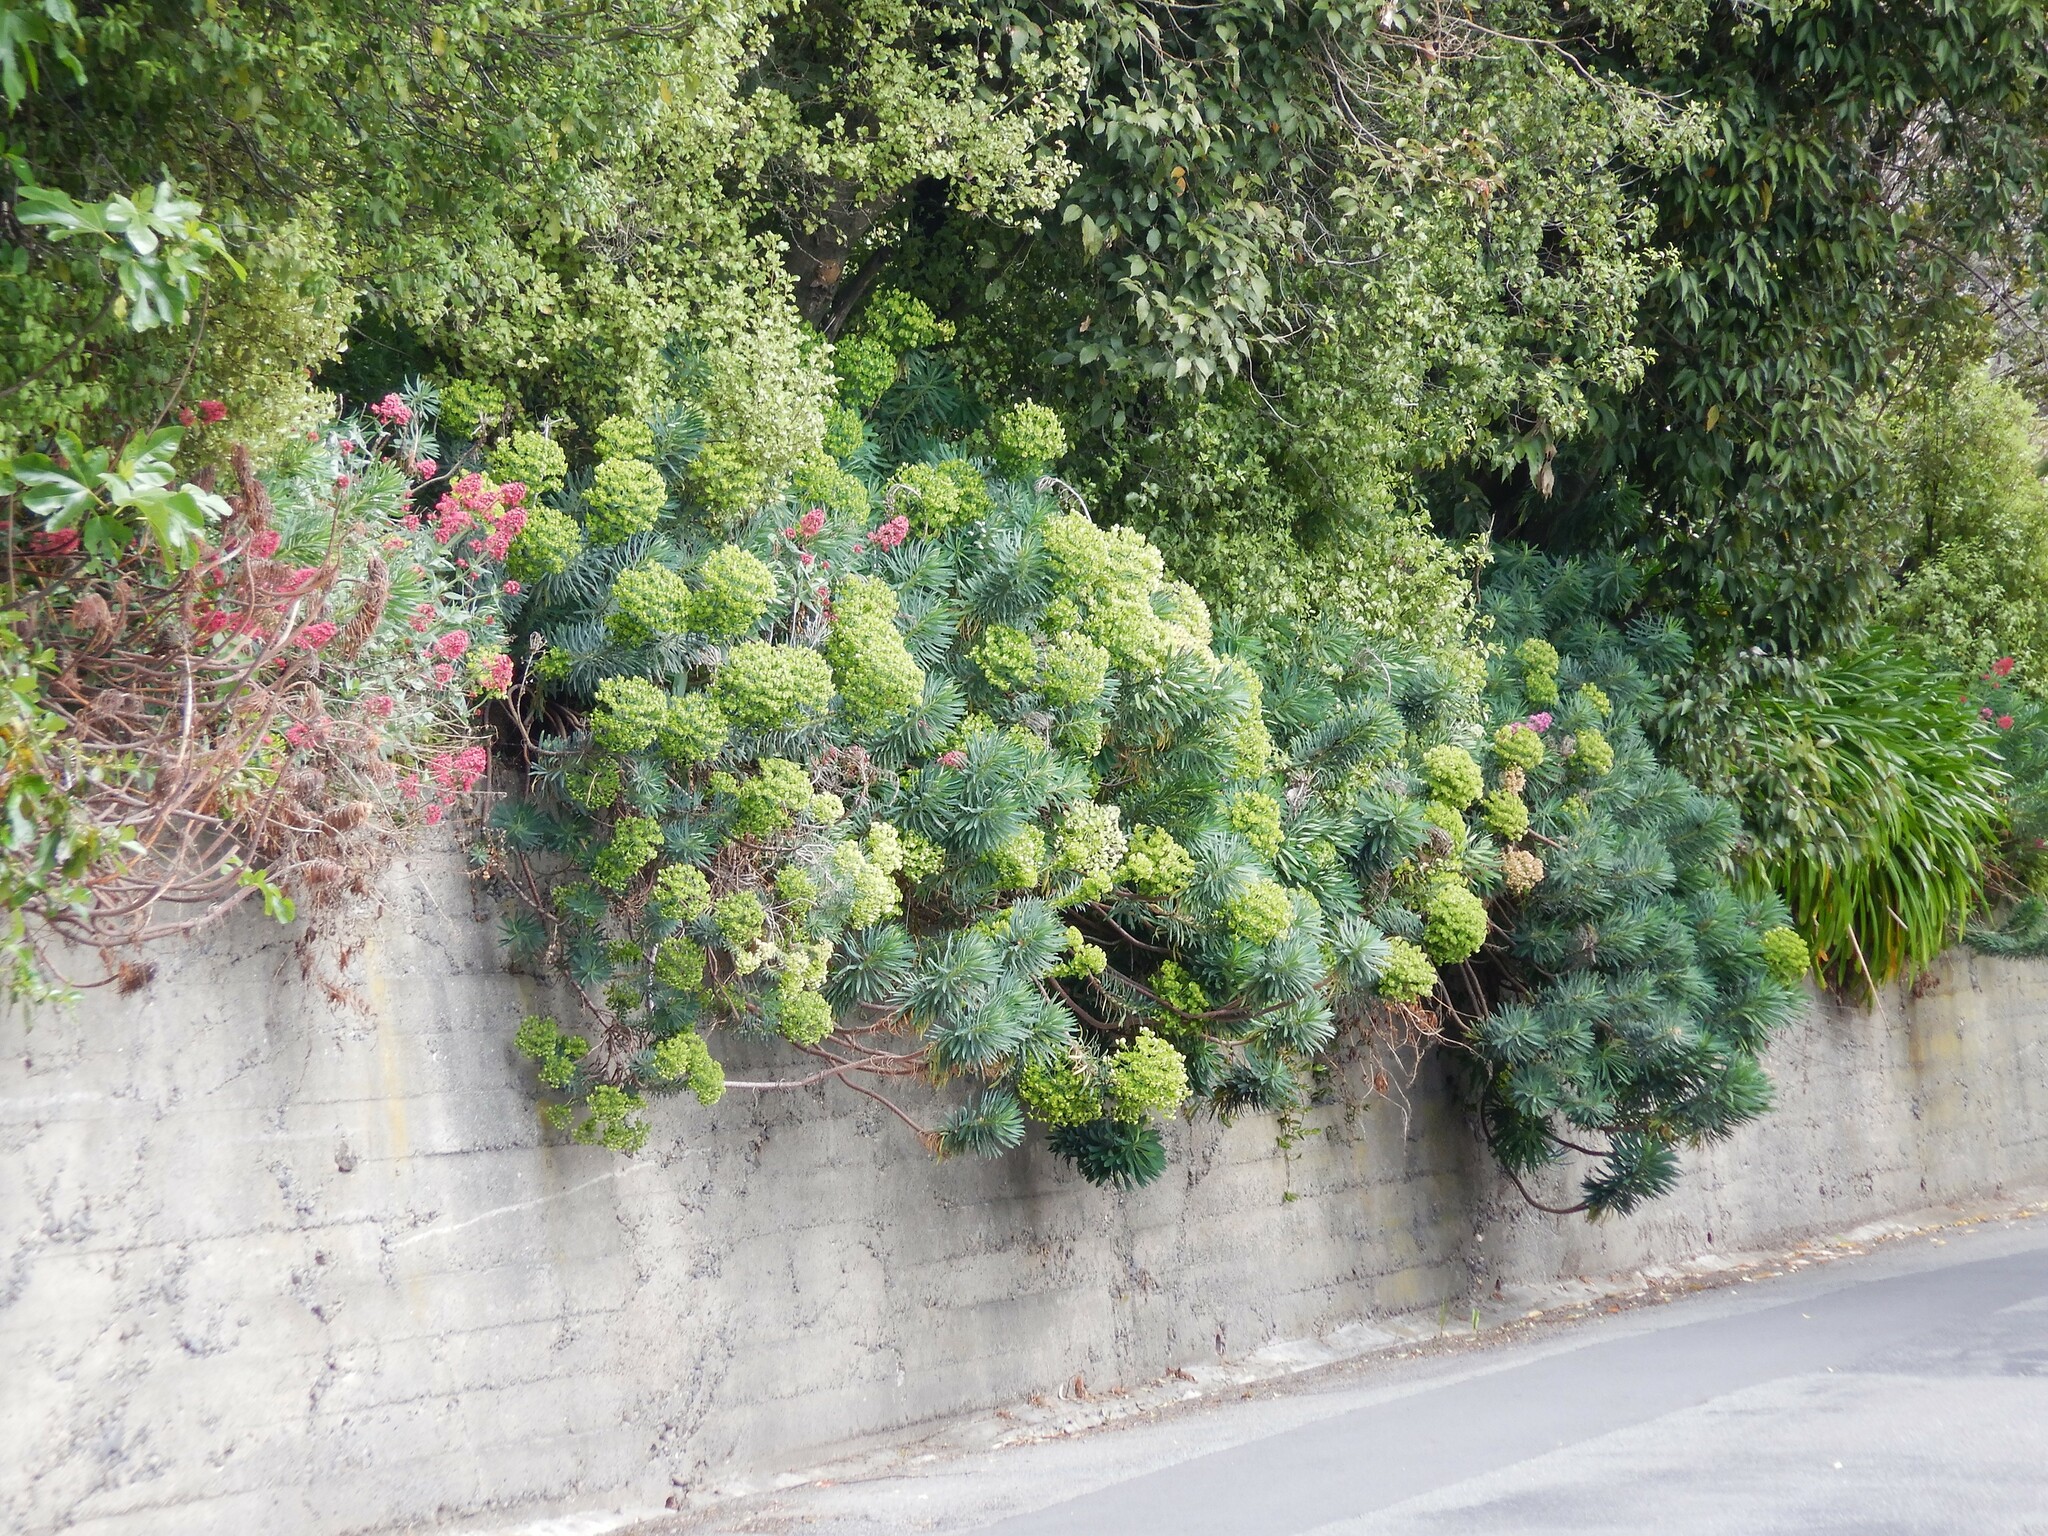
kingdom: Plantae
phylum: Tracheophyta
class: Magnoliopsida
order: Malpighiales
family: Euphorbiaceae
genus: Euphorbia
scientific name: Euphorbia characias
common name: Mediterranean spurge
